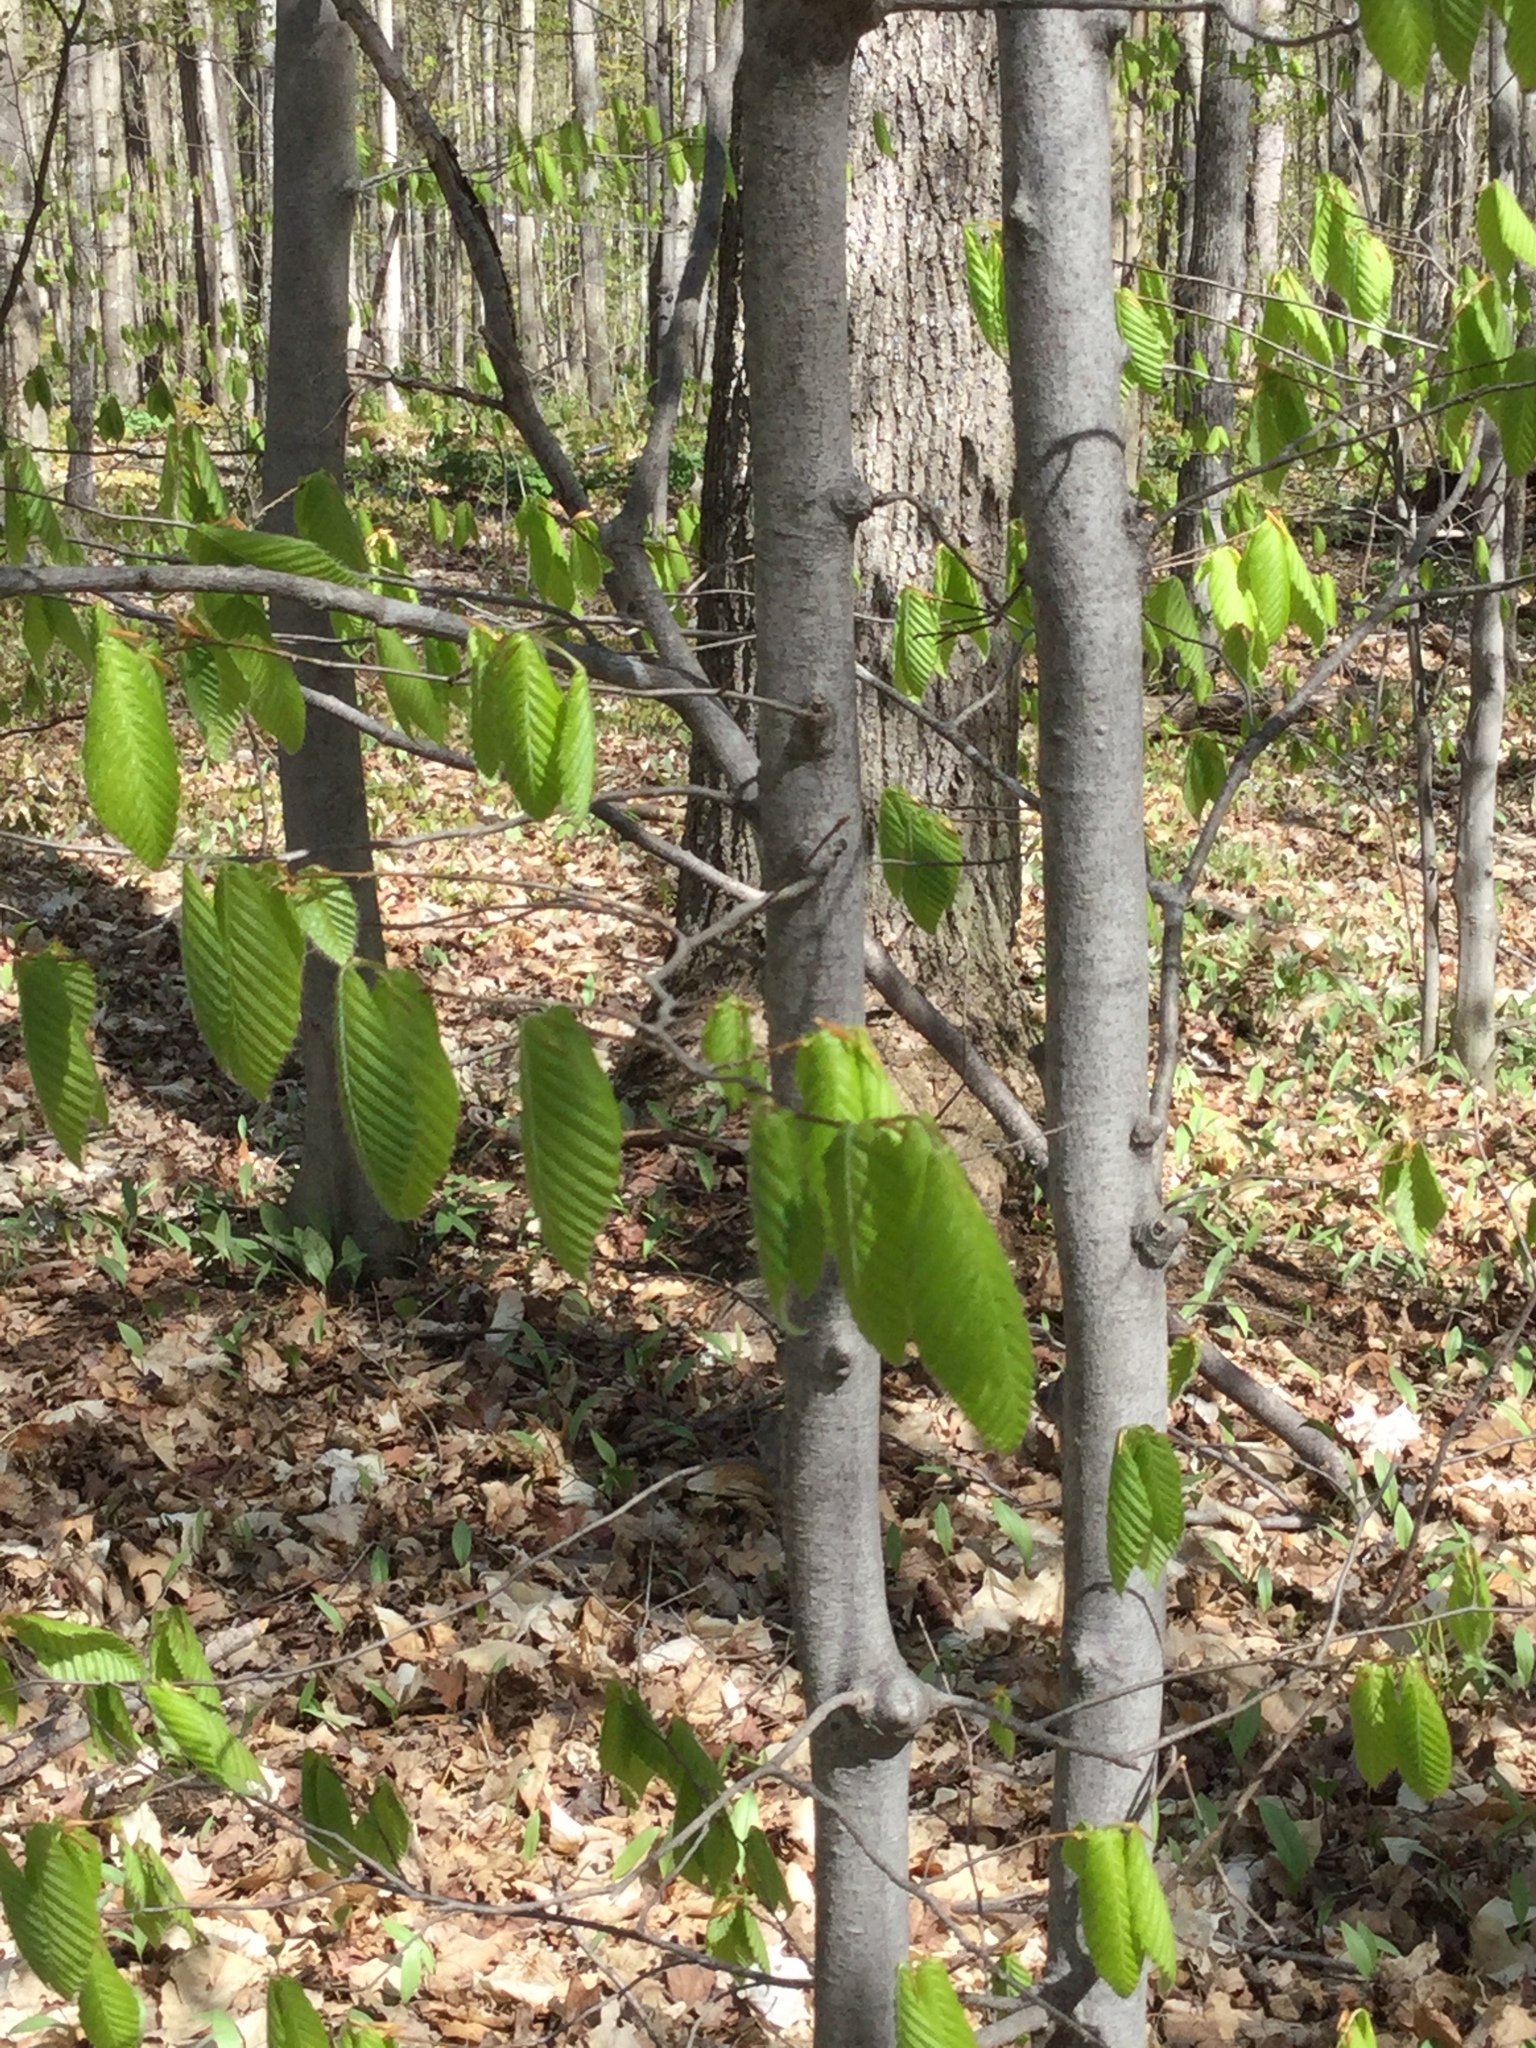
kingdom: Plantae
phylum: Tracheophyta
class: Magnoliopsida
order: Fagales
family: Fagaceae
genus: Fagus
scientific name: Fagus grandifolia
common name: American beech
